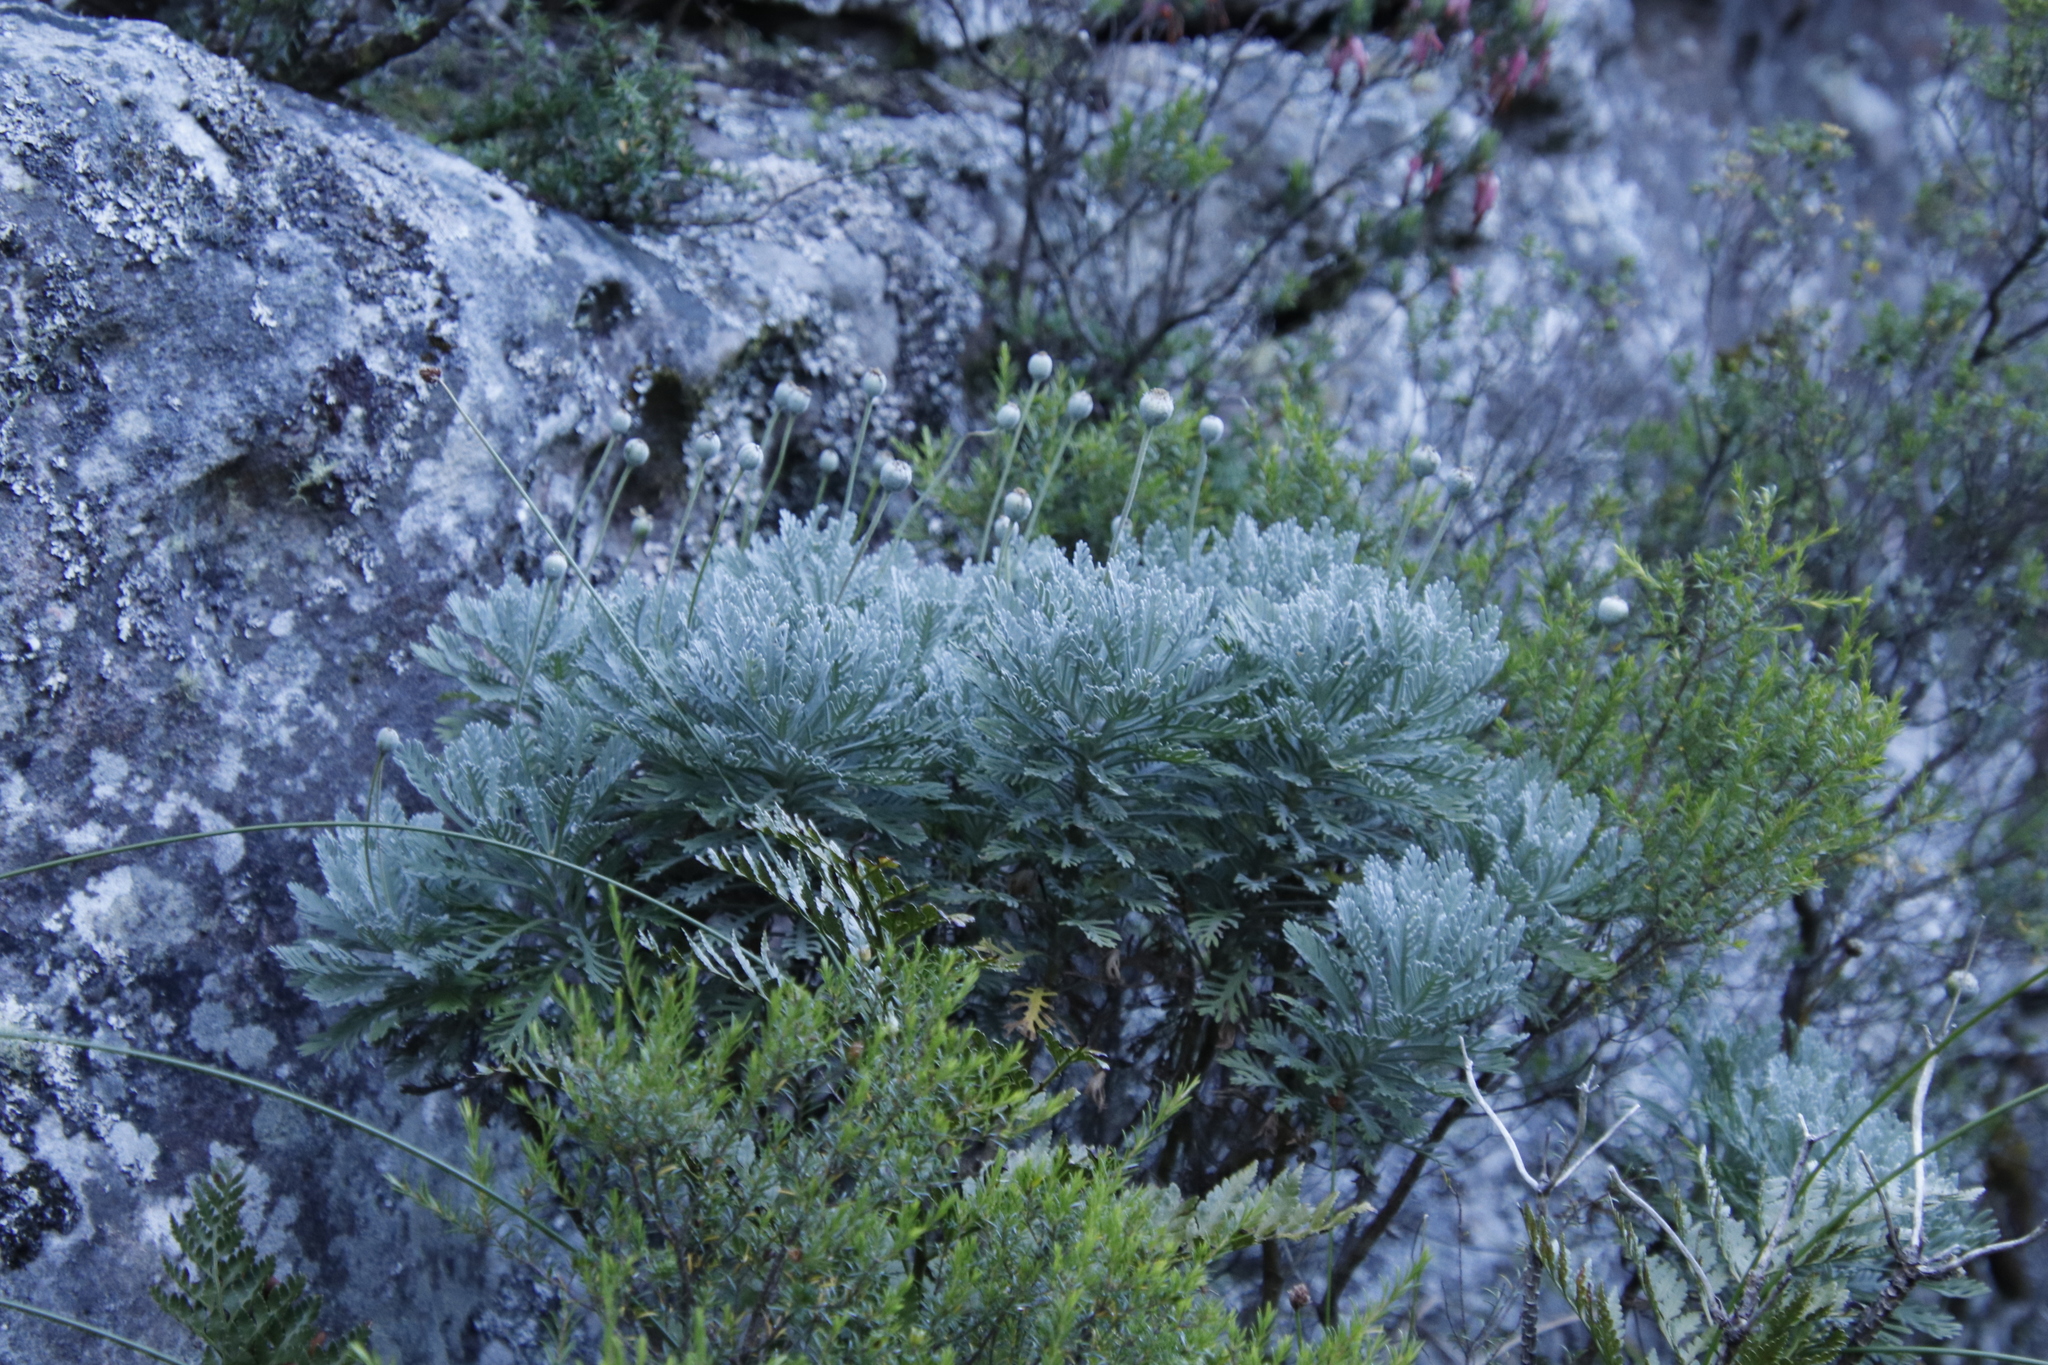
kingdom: Plantae
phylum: Tracheophyta
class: Magnoliopsida
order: Asterales
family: Asteraceae
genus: Euryops
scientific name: Euryops pectinatus
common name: Gray-leaf euryops
